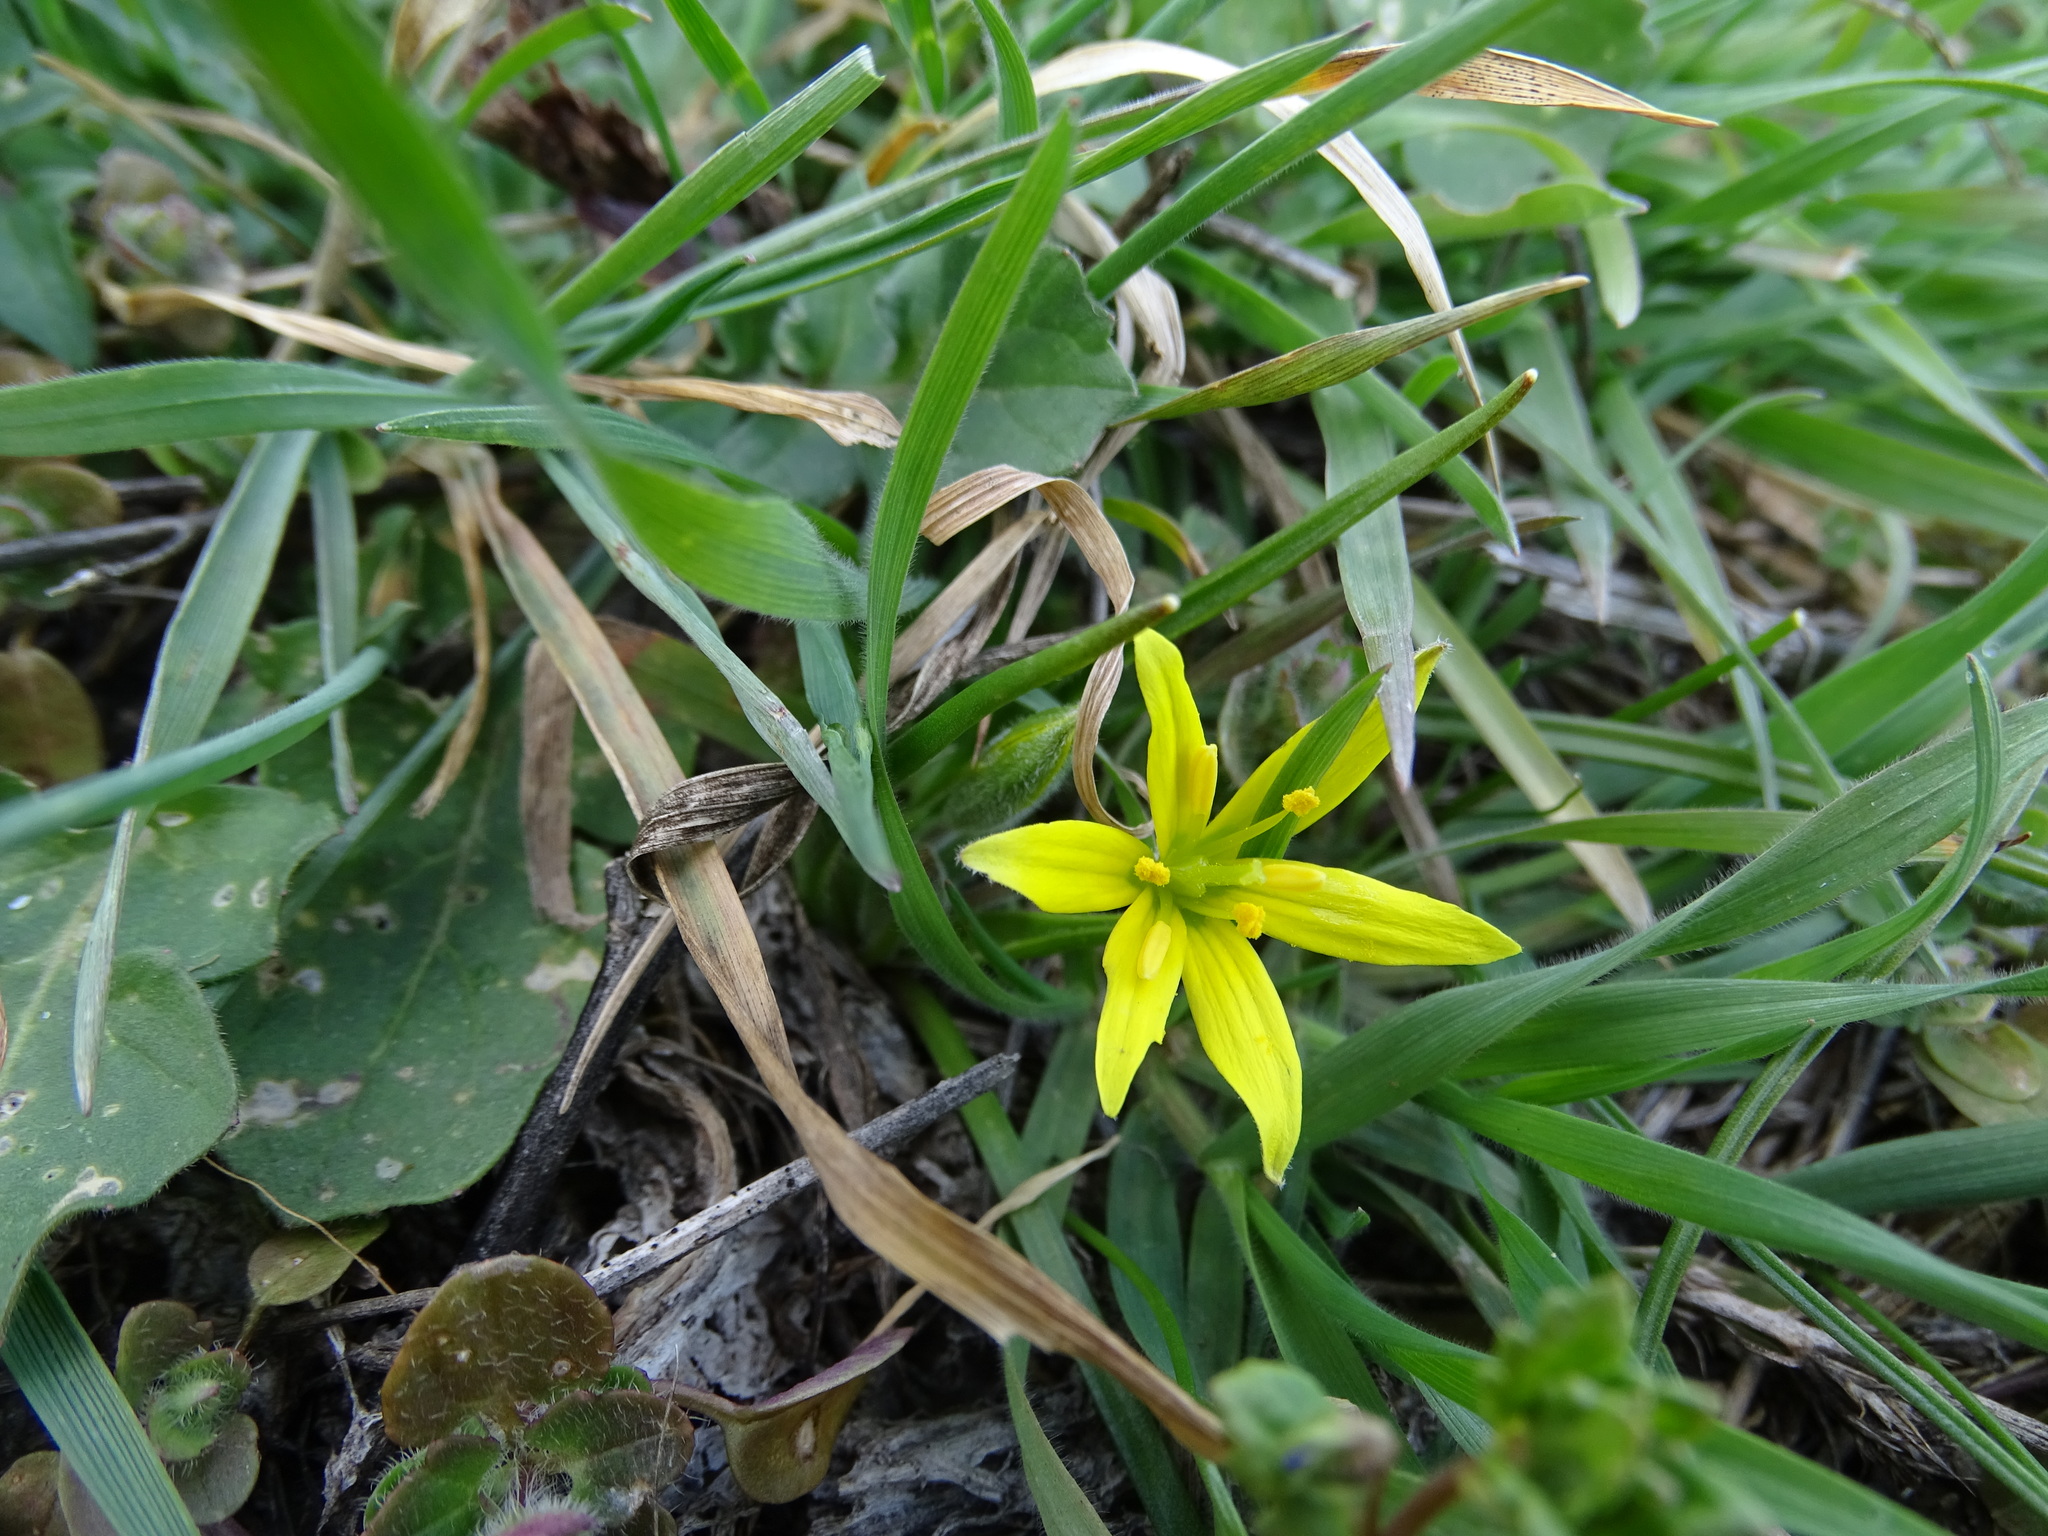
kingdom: Plantae
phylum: Tracheophyta
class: Liliopsida
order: Liliales
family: Liliaceae
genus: Gagea
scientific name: Gagea villosa
